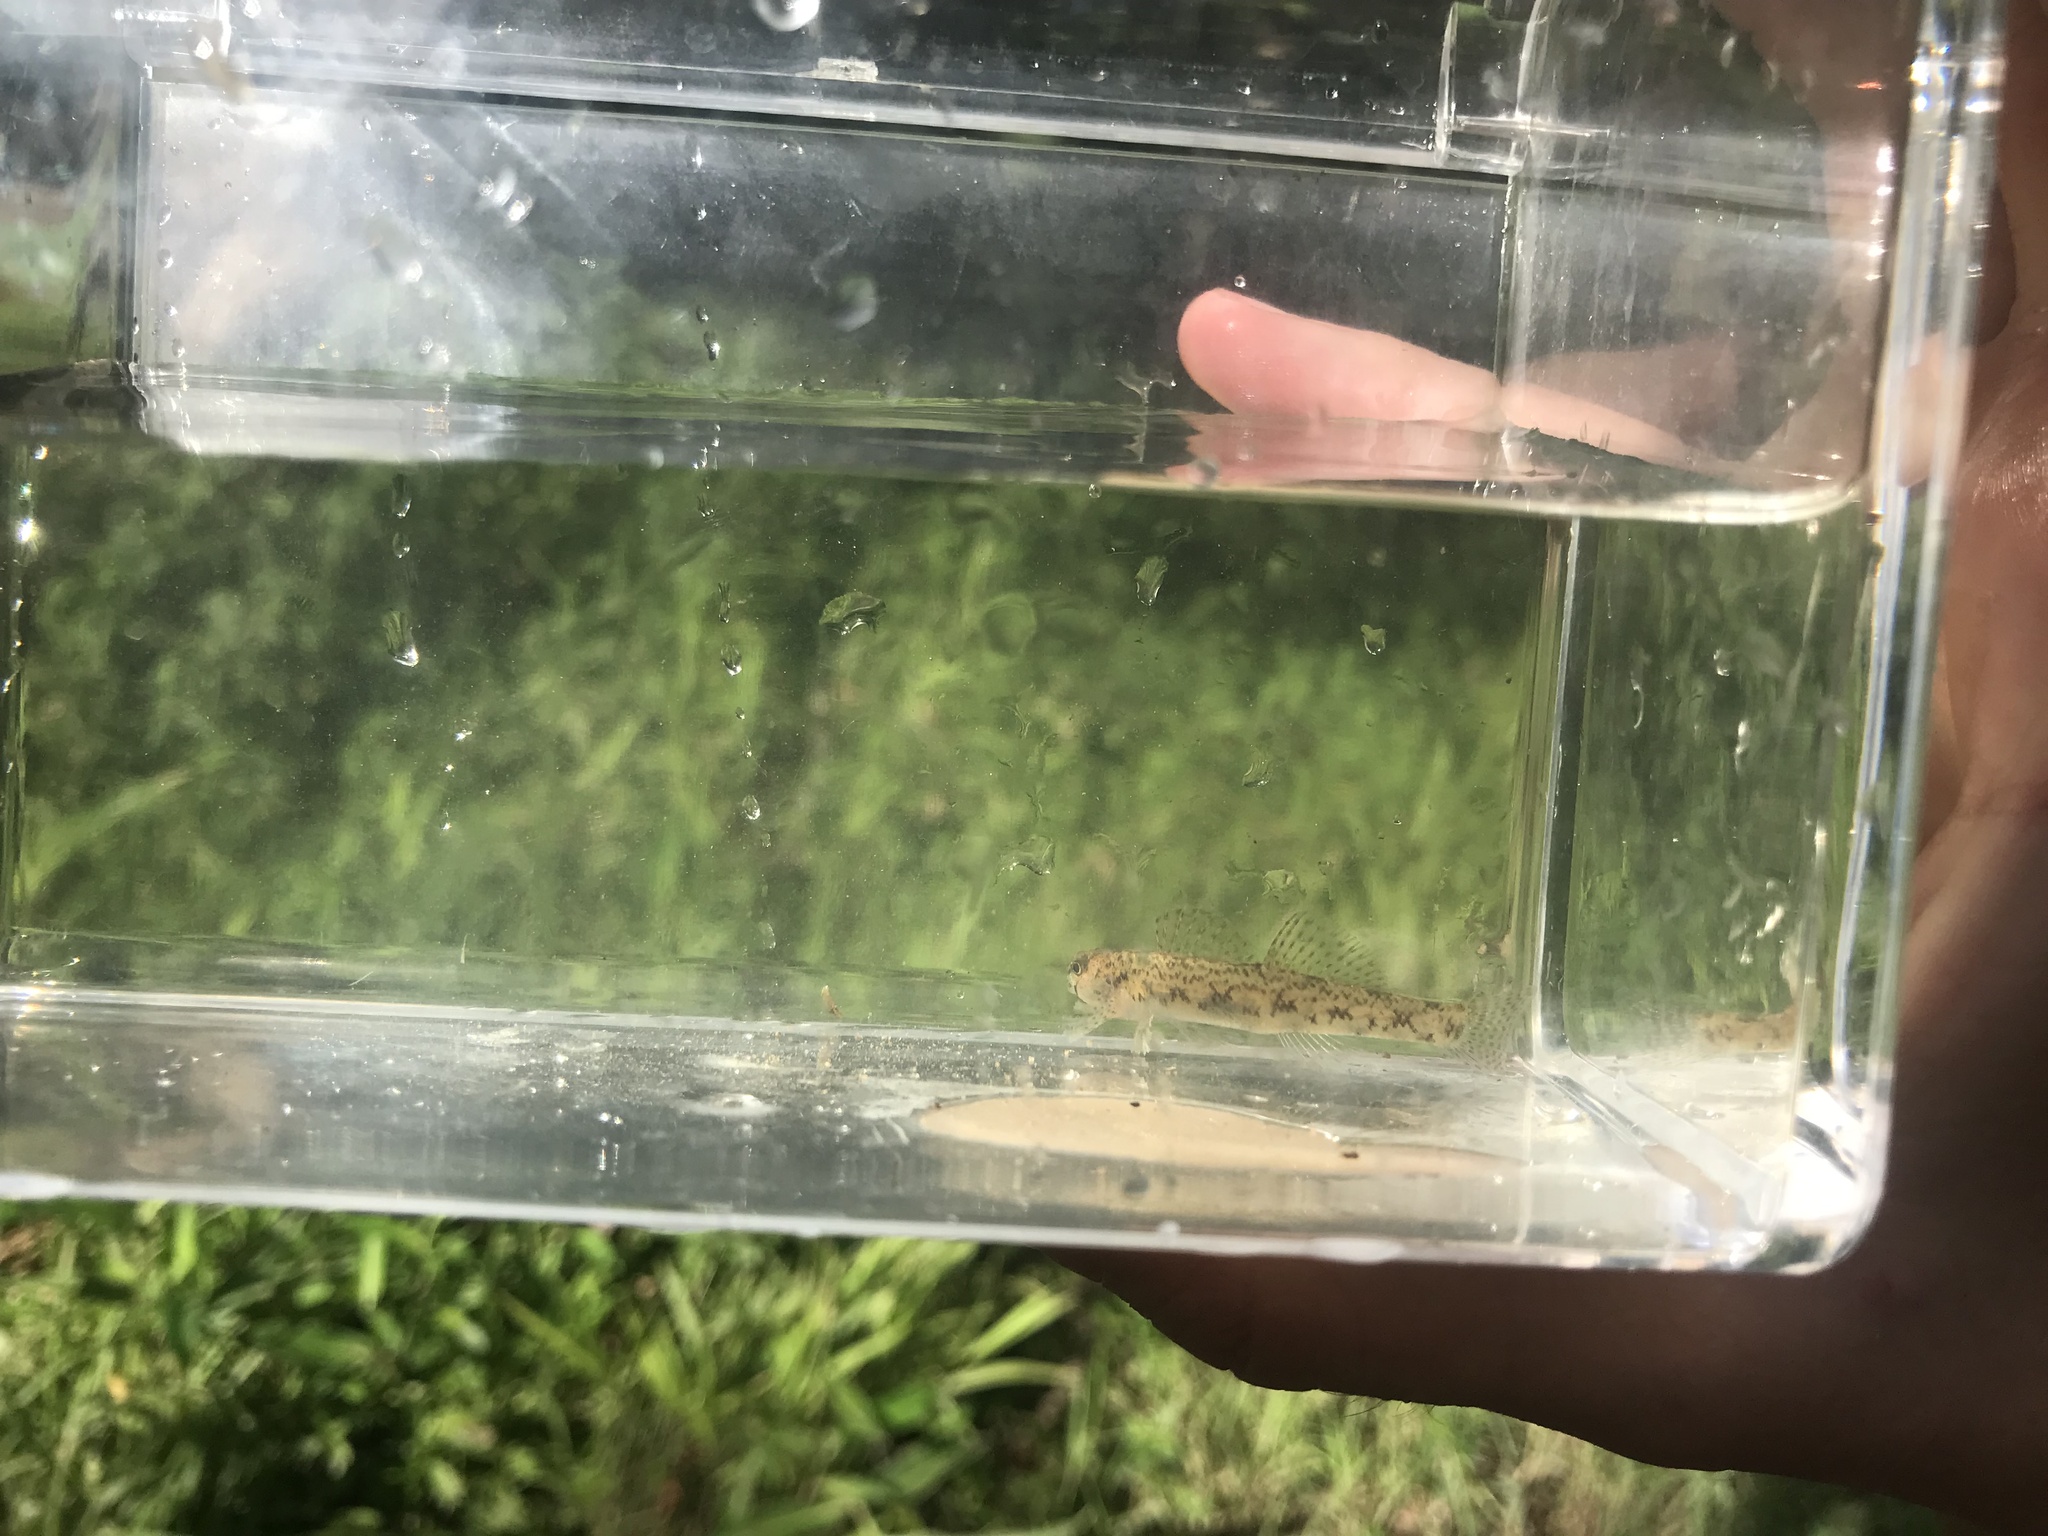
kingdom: Animalia
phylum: Chordata
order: Perciformes
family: Percidae
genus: Etheostoma
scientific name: Etheostoma olmstedi
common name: Tessellated darter
